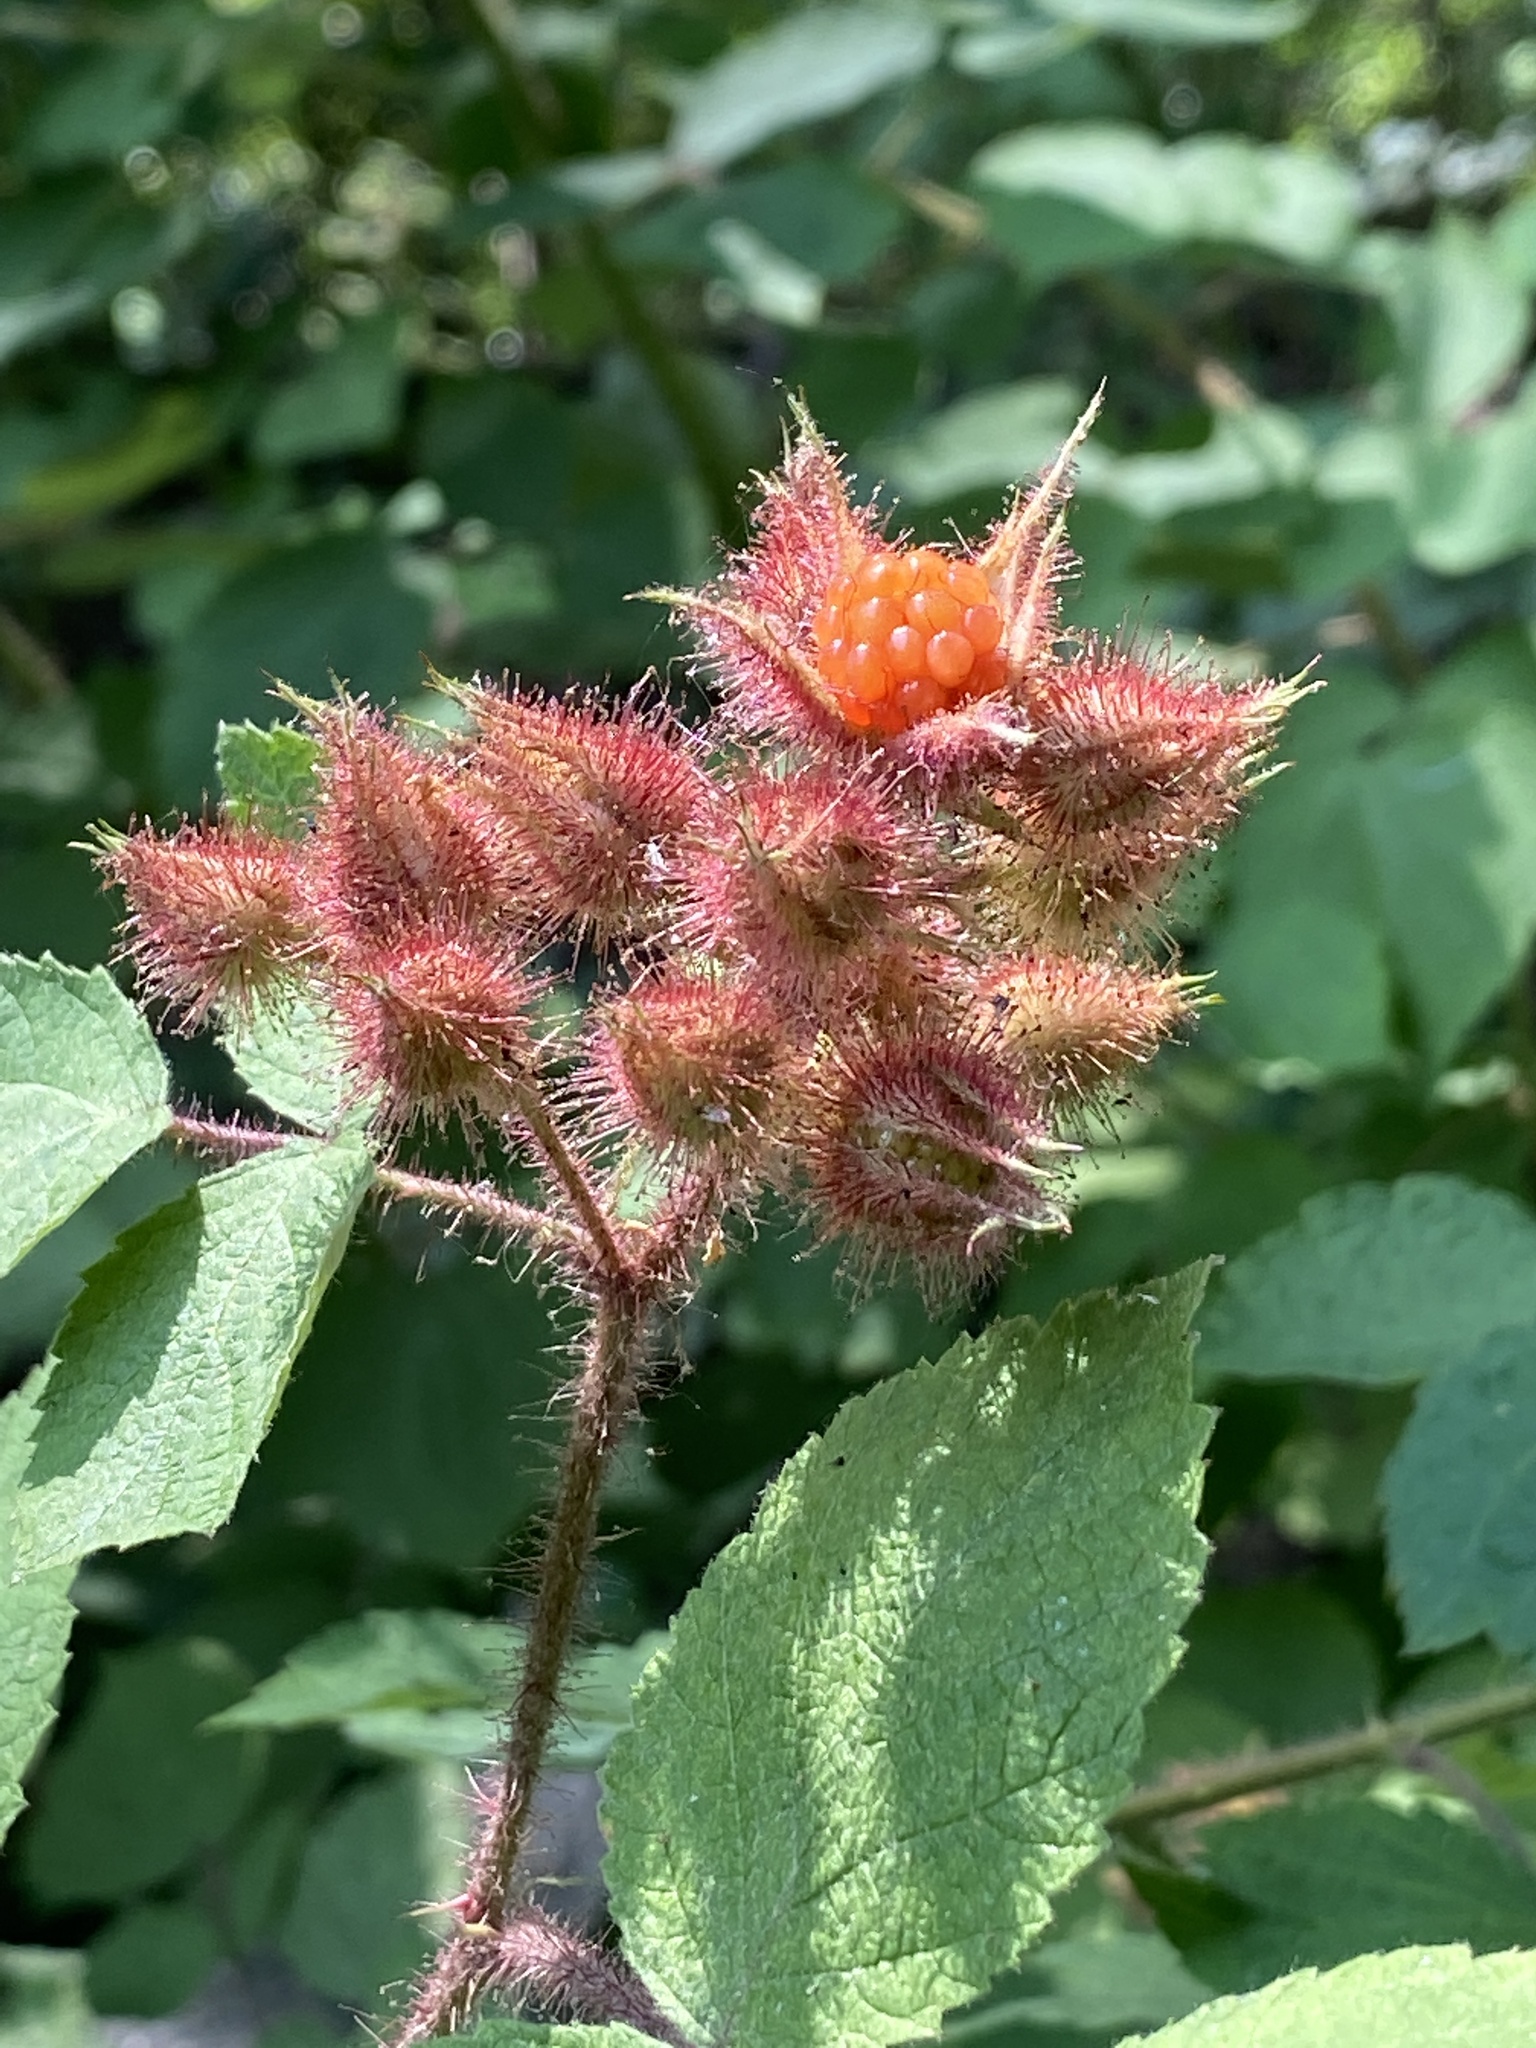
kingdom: Plantae
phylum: Tracheophyta
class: Magnoliopsida
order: Rosales
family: Rosaceae
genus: Rubus
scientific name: Rubus phoenicolasius
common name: Japanese wineberry
